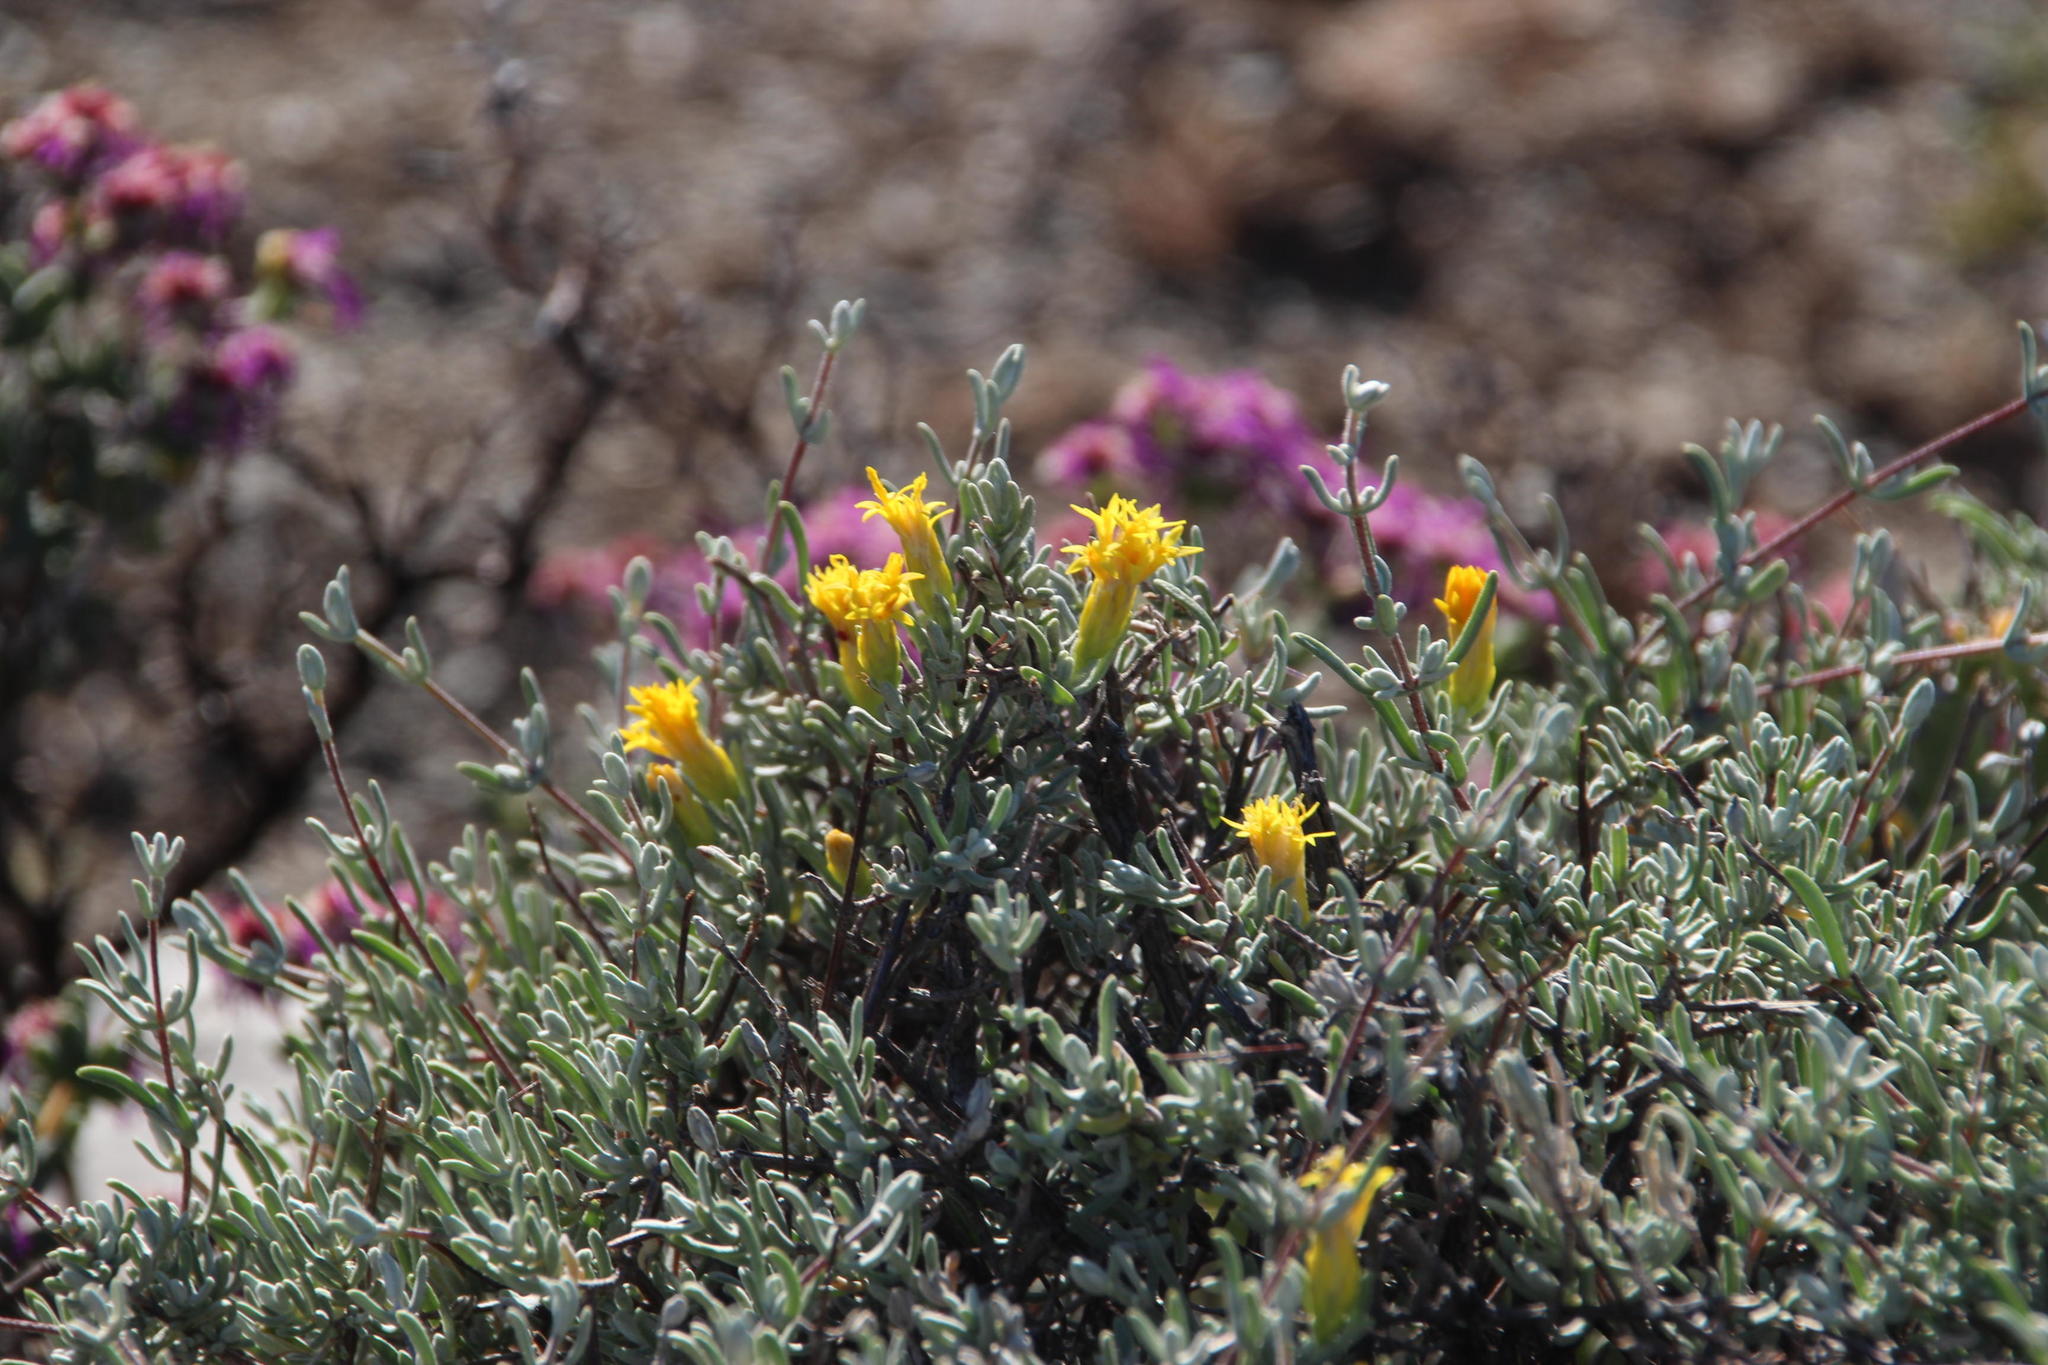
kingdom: Plantae
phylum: Tracheophyta
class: Magnoliopsida
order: Asterales
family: Asteraceae
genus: Pteronia
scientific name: Pteronia incana
